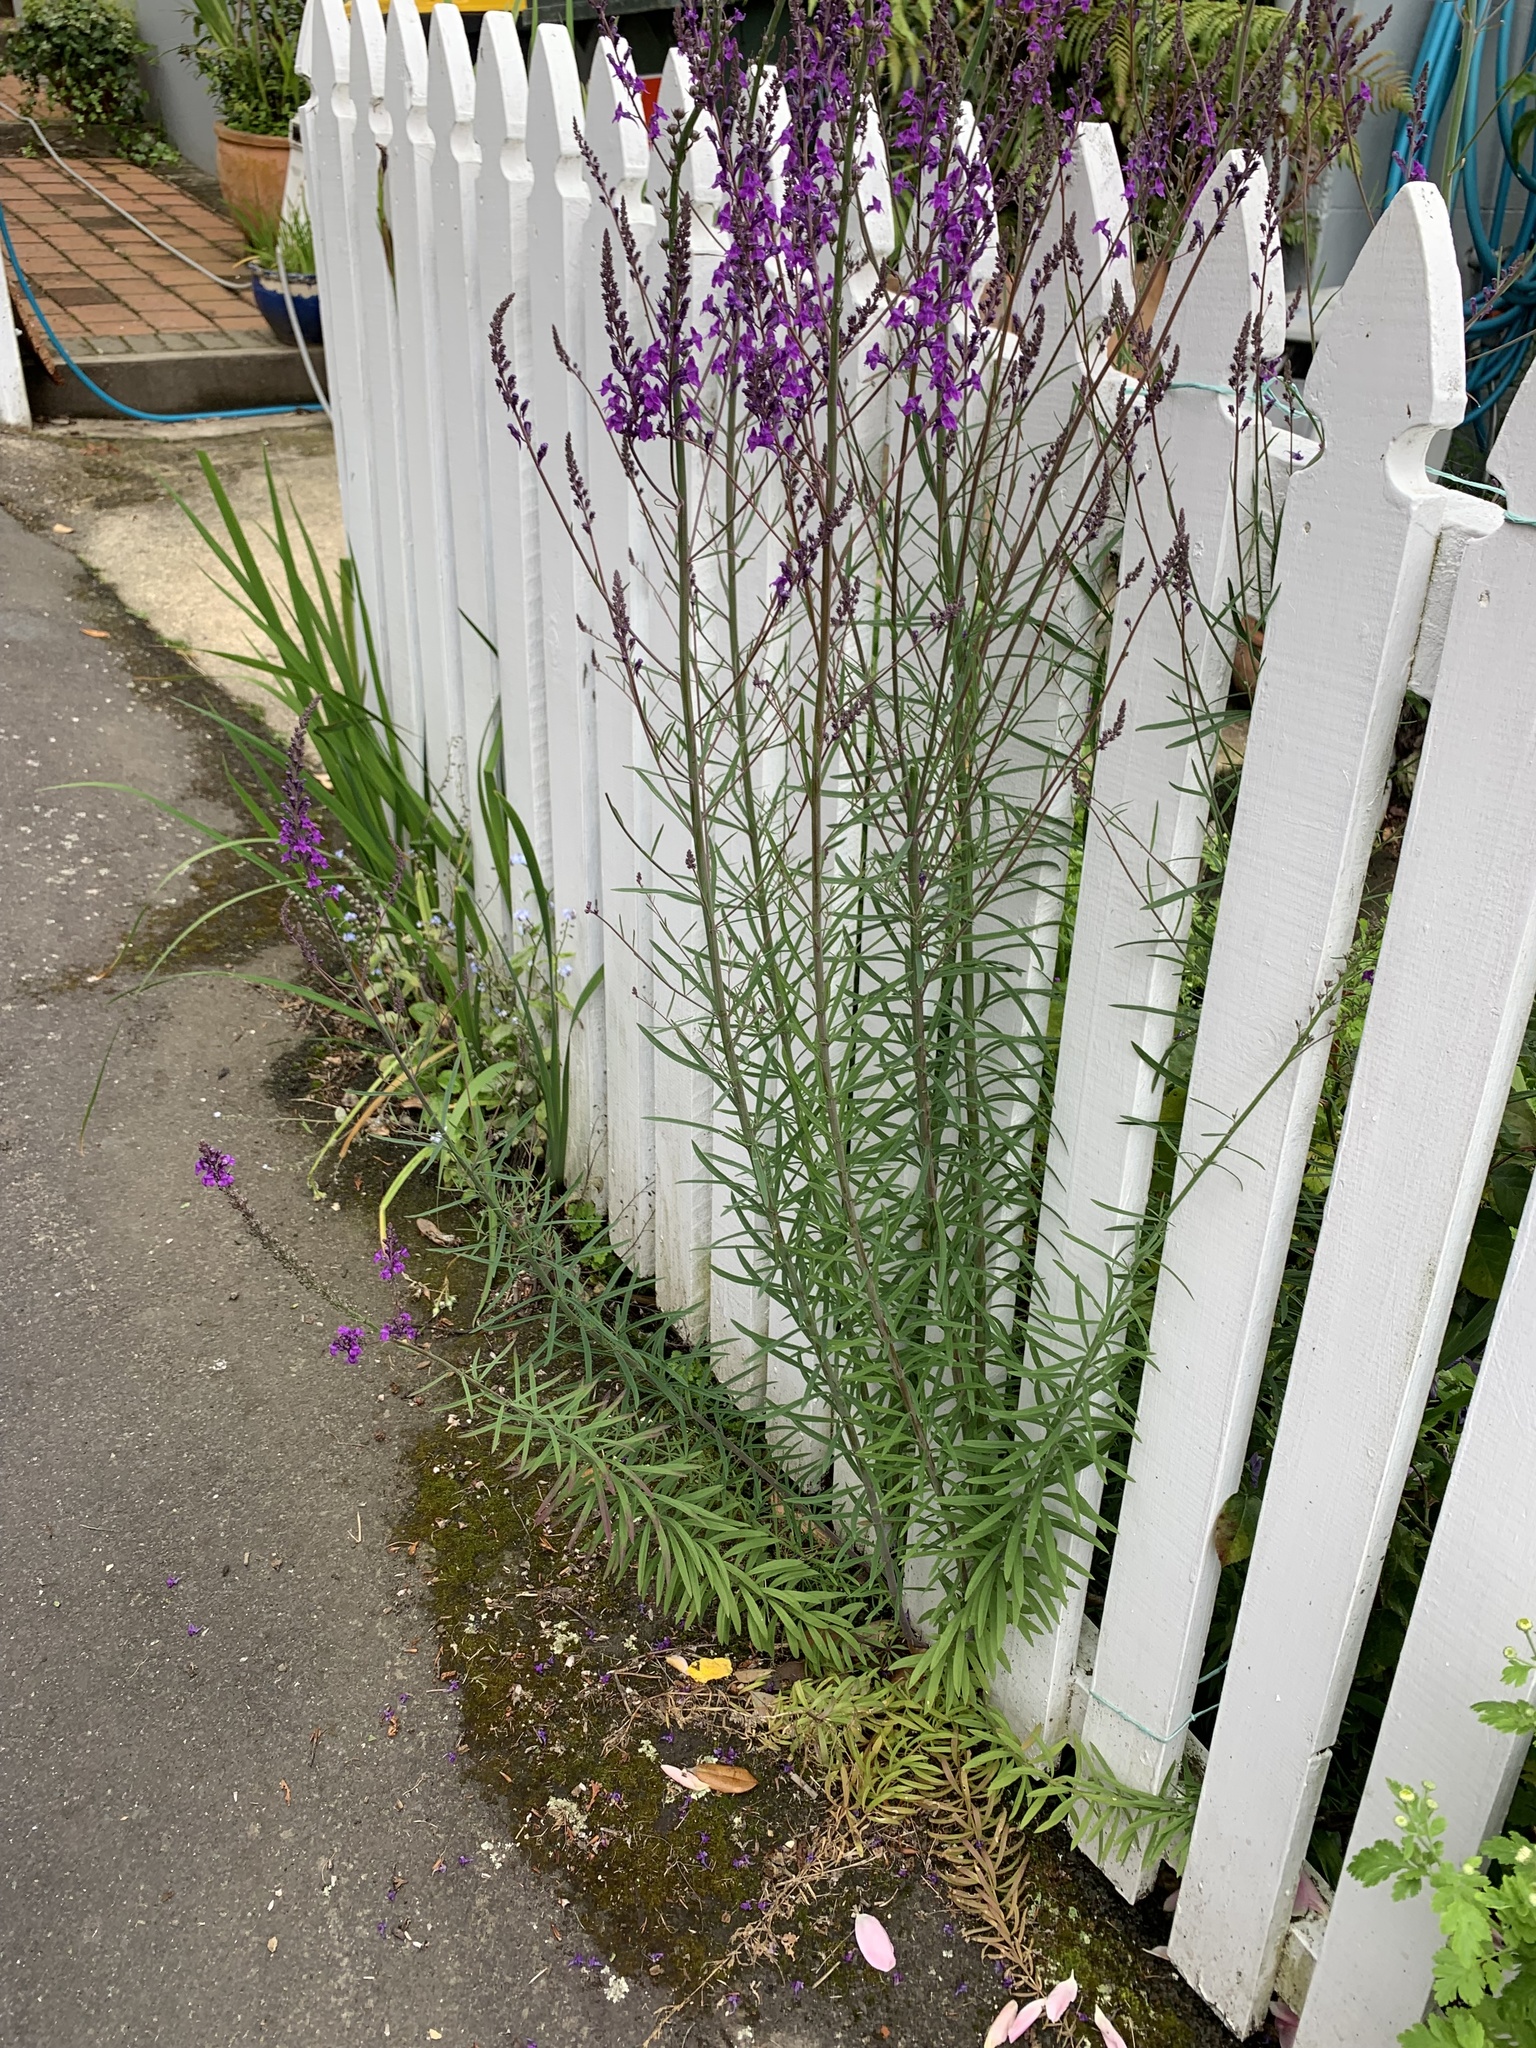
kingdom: Plantae
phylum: Tracheophyta
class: Magnoliopsida
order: Lamiales
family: Plantaginaceae
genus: Linaria
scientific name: Linaria purpurea
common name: Purple toadflax
